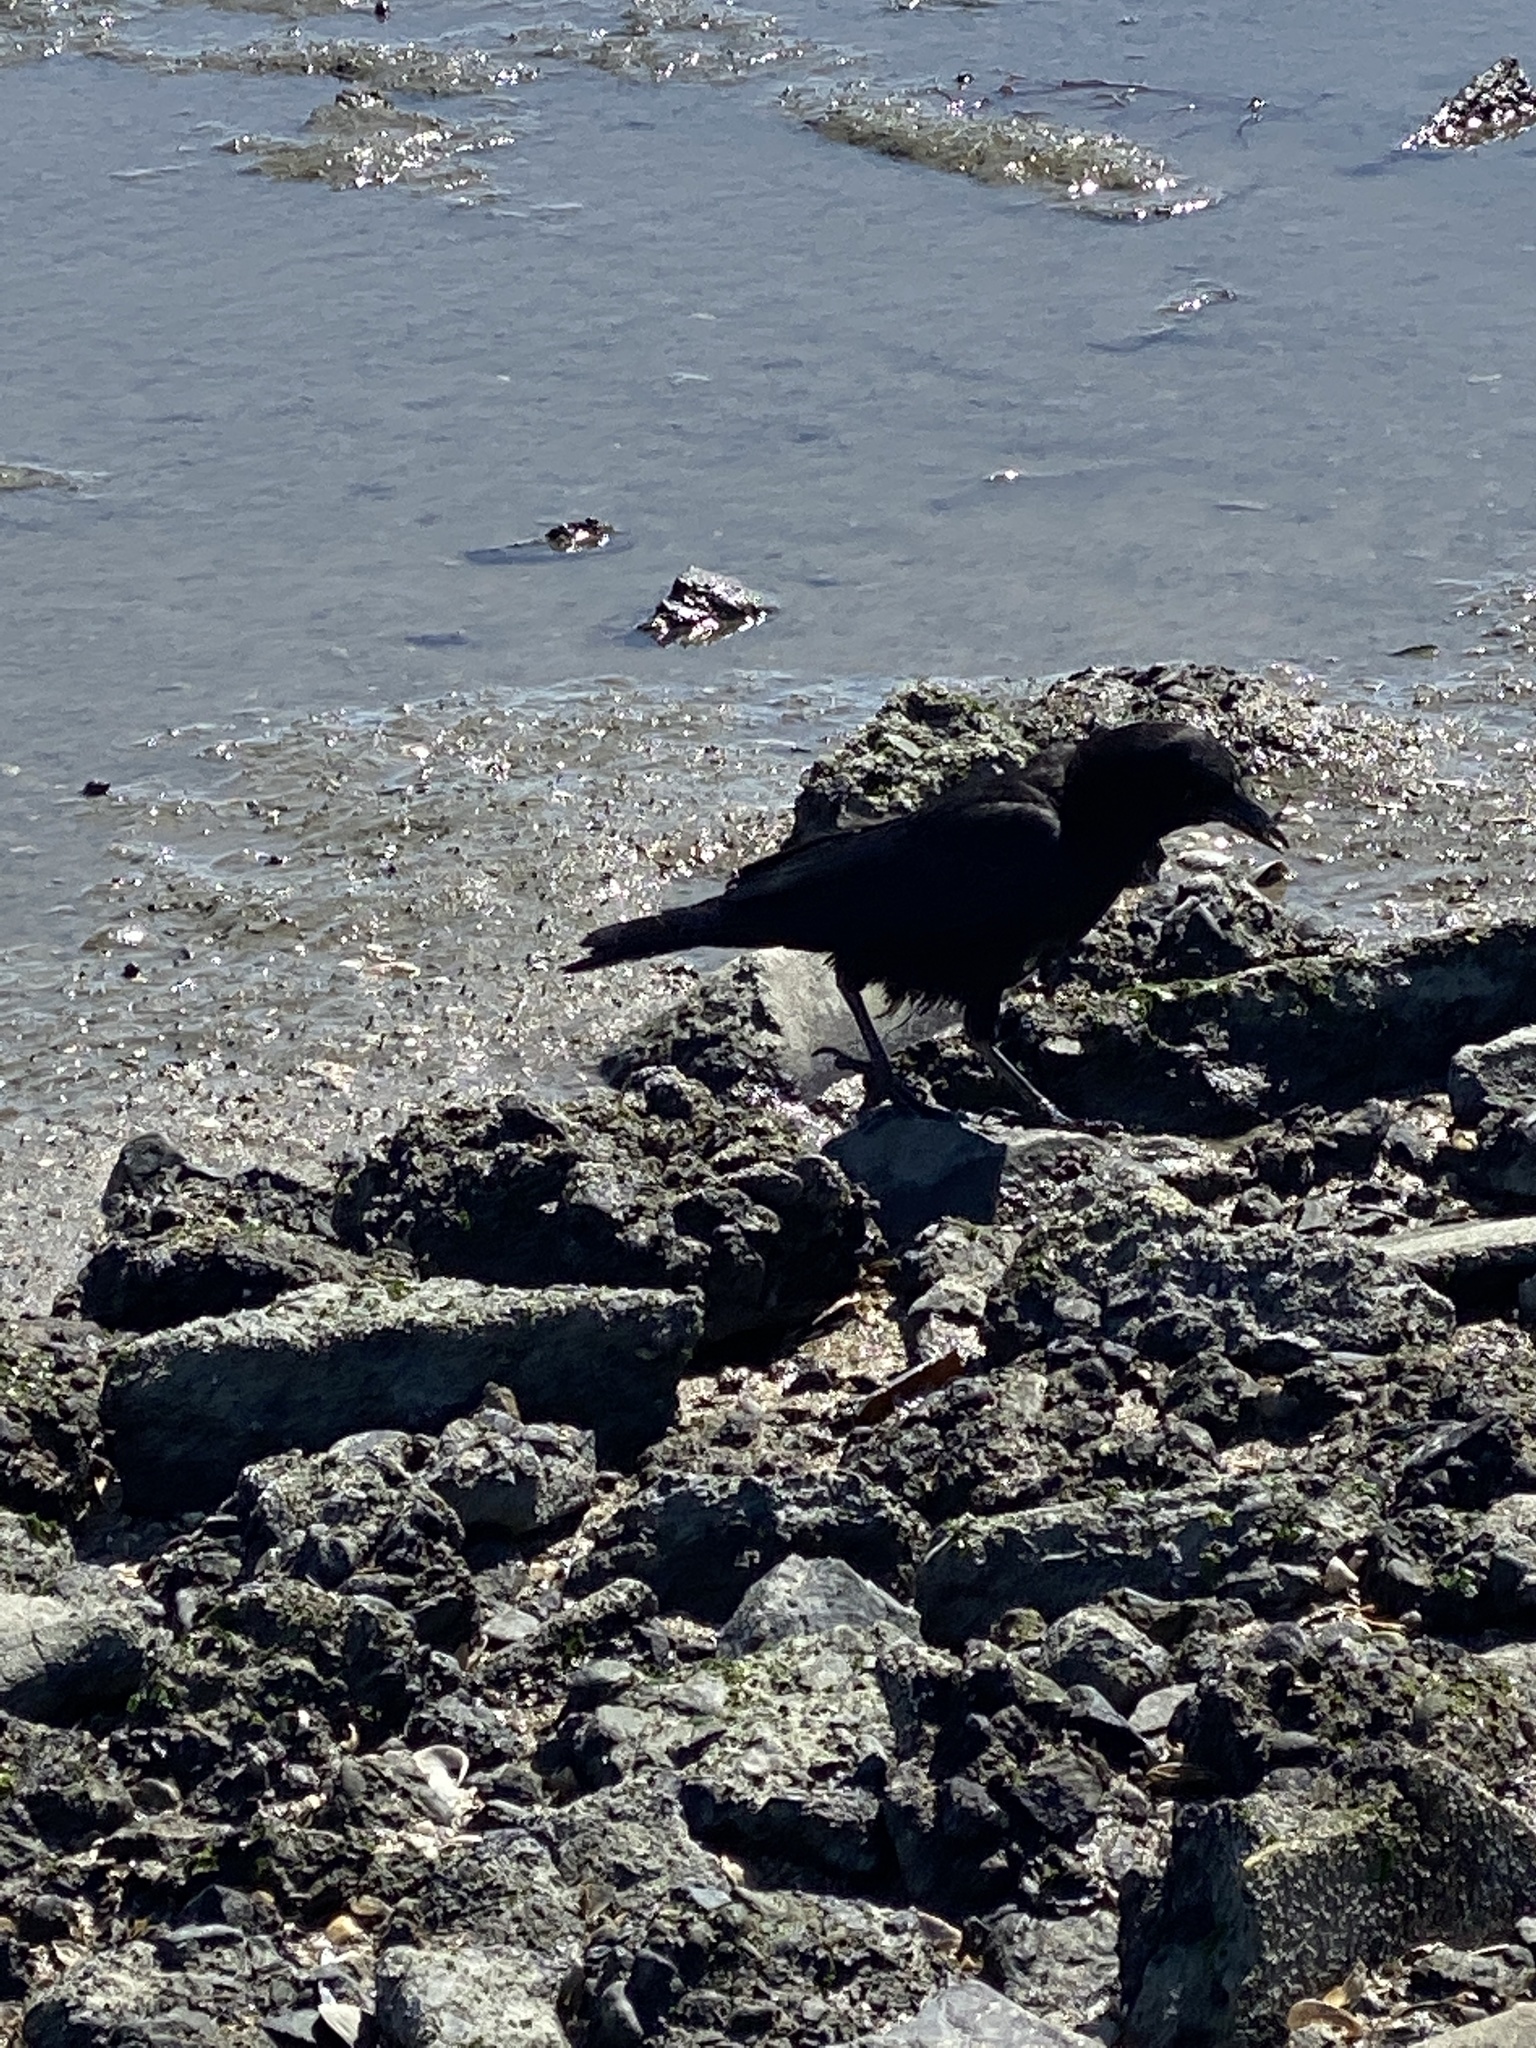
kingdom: Animalia
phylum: Chordata
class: Aves
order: Passeriformes
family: Corvidae
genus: Corvus
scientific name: Corvus brachyrhynchos
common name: American crow
